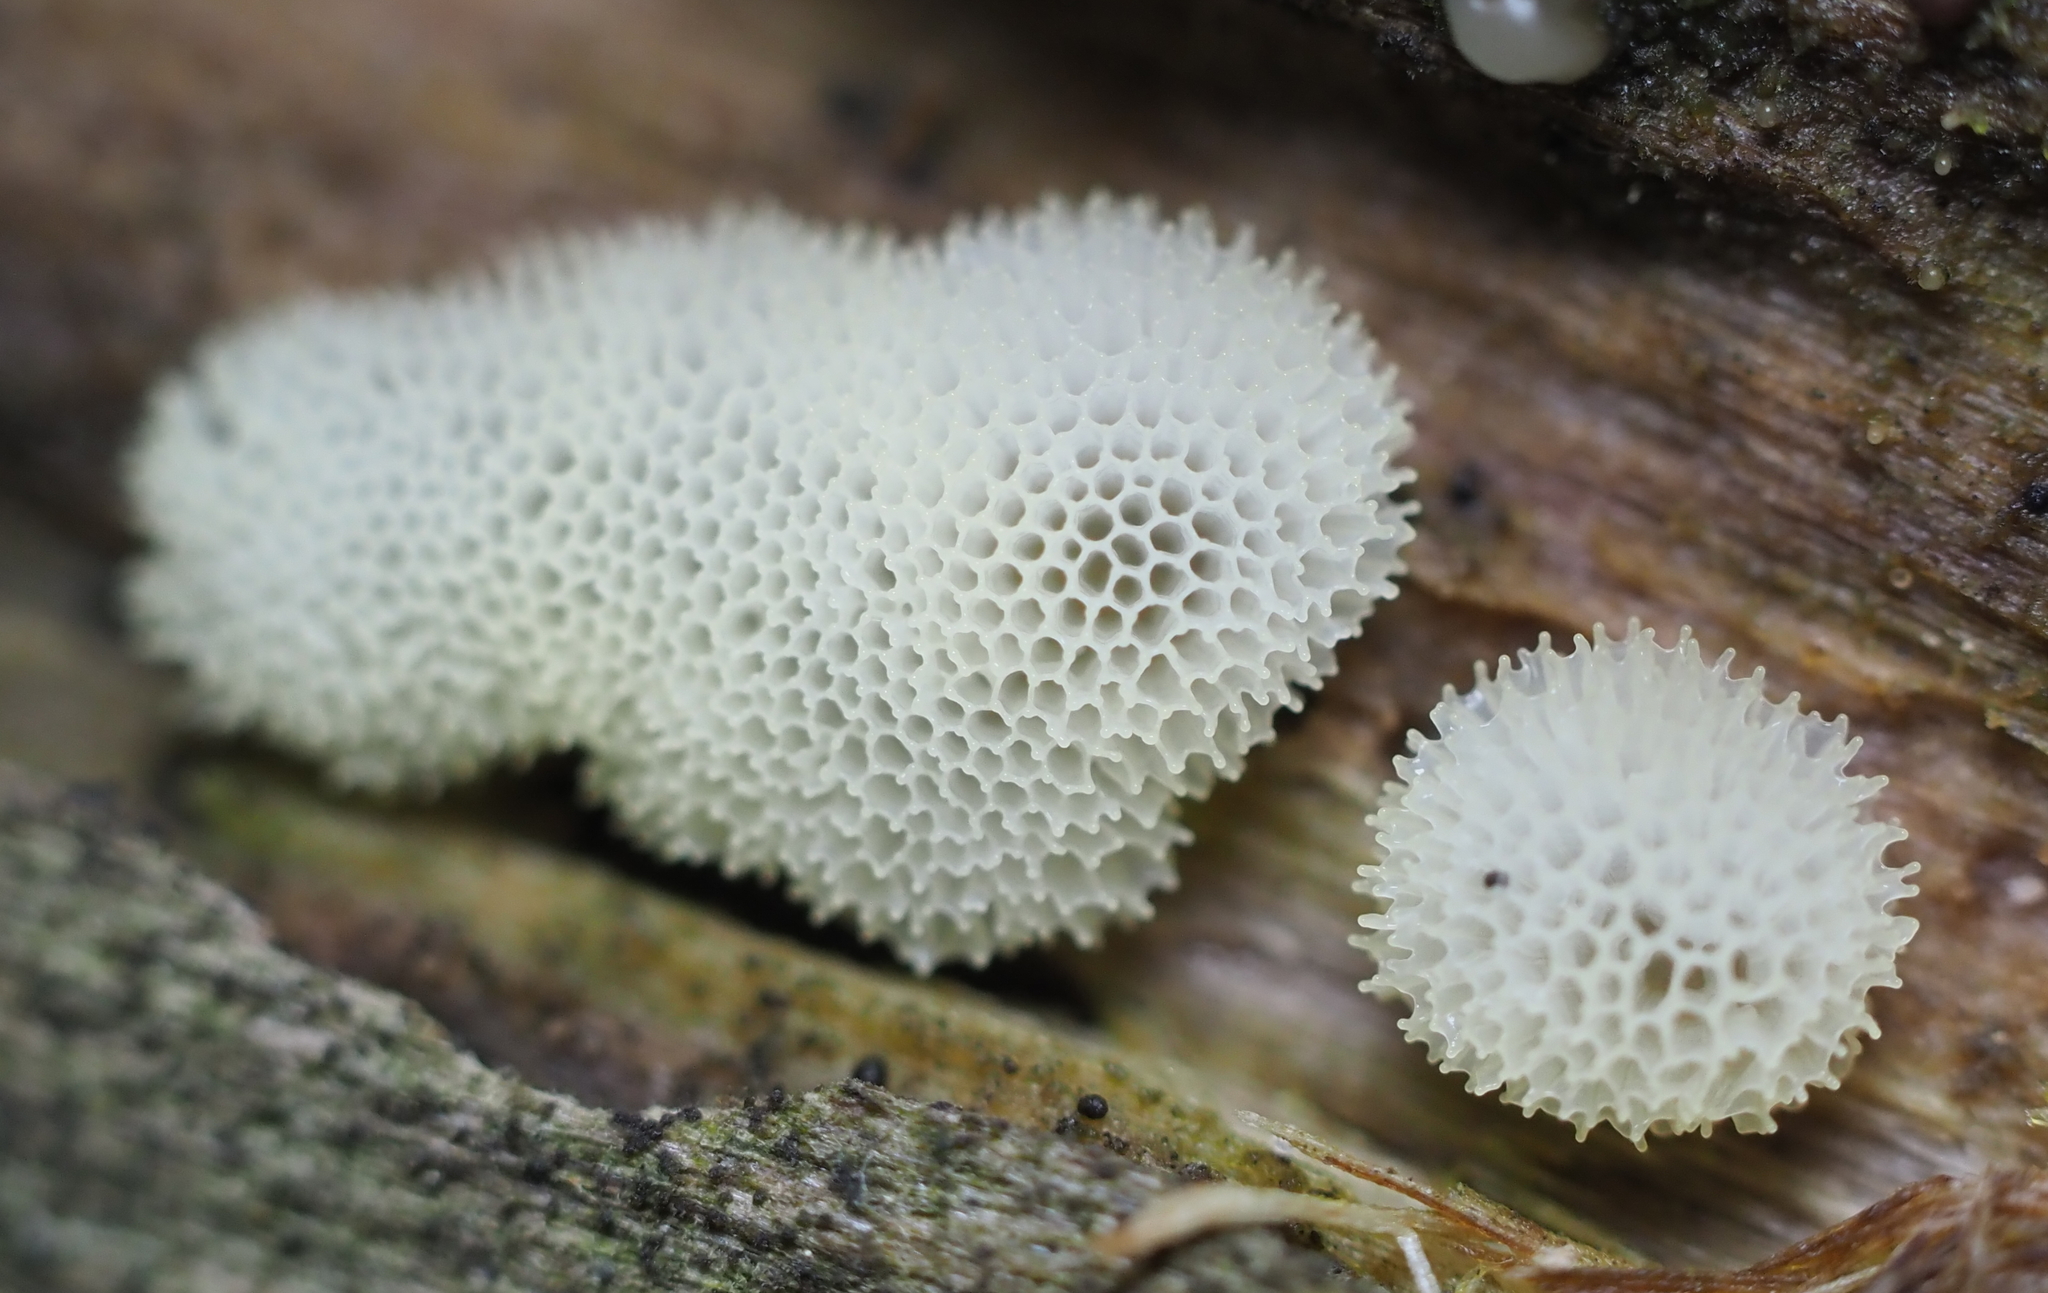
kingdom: Protozoa
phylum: Mycetozoa
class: Protosteliomycetes
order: Ceratiomyxales
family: Ceratiomyxaceae
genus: Ceratiomyxa
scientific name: Ceratiomyxa fruticulosa
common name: Honeycomb coral slime mold
